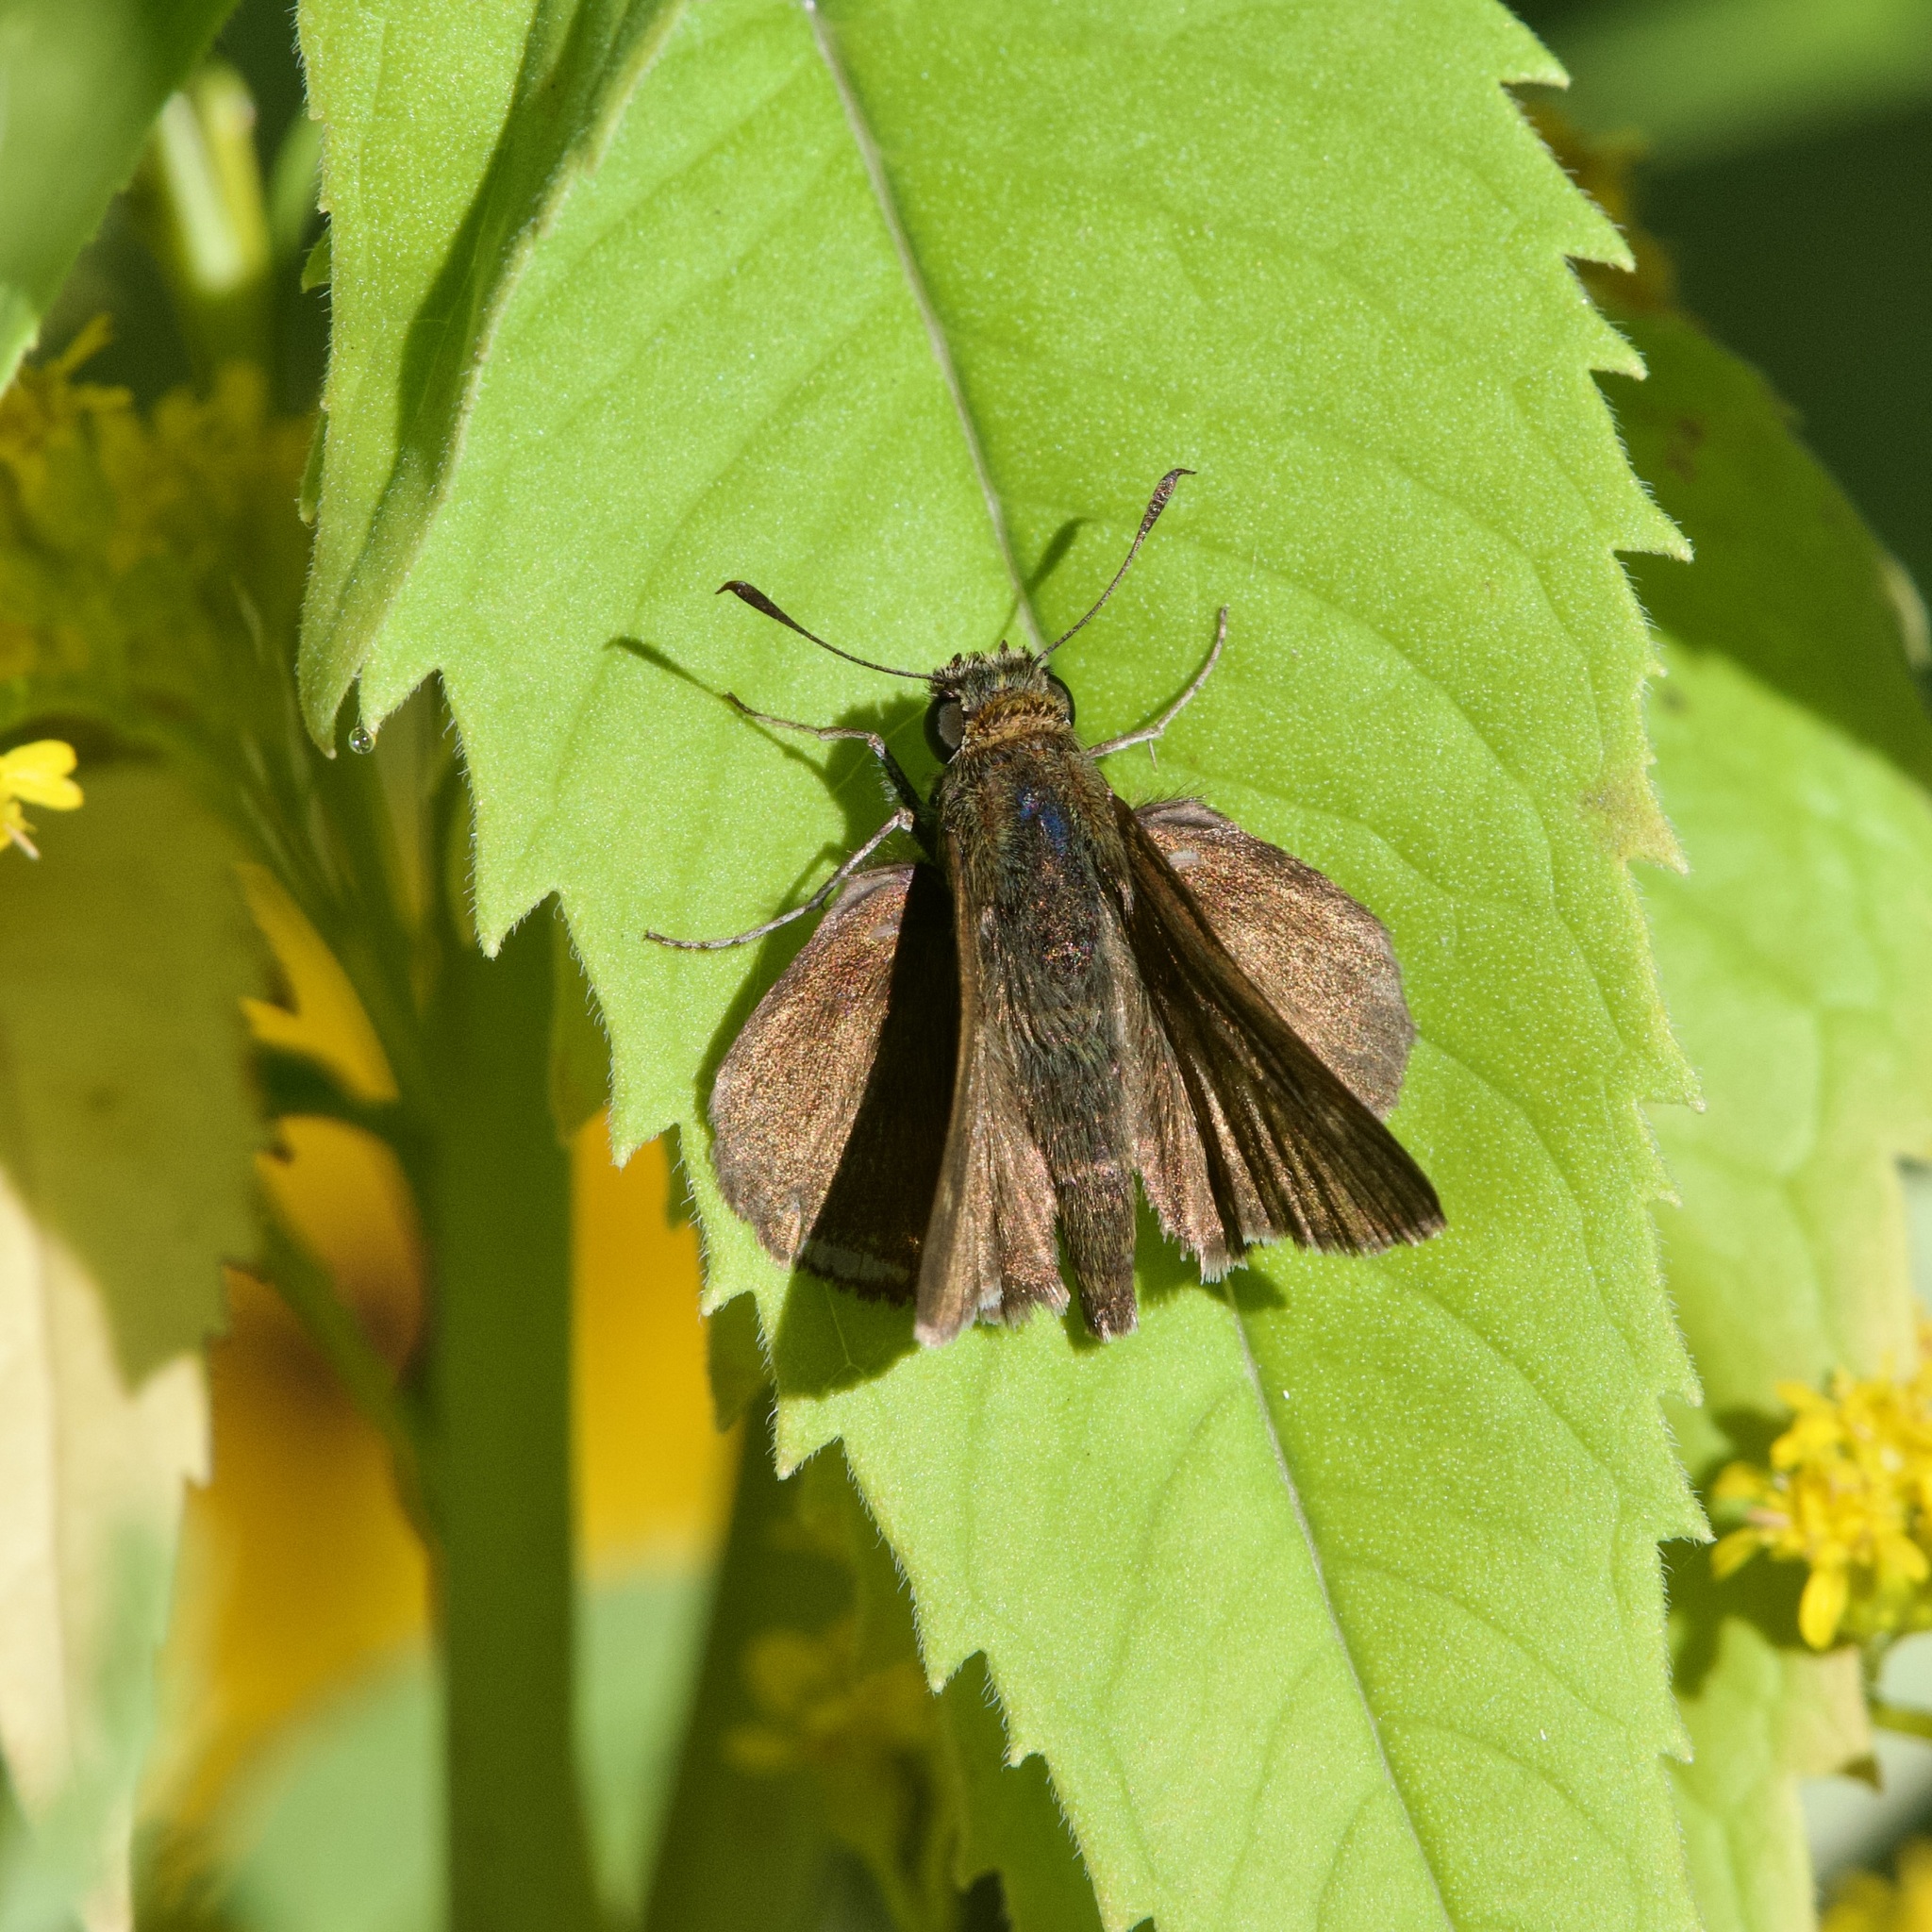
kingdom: Animalia
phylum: Arthropoda
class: Insecta
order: Lepidoptera
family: Hesperiidae
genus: Euphyes
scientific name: Euphyes vestris
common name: Dun skipper
